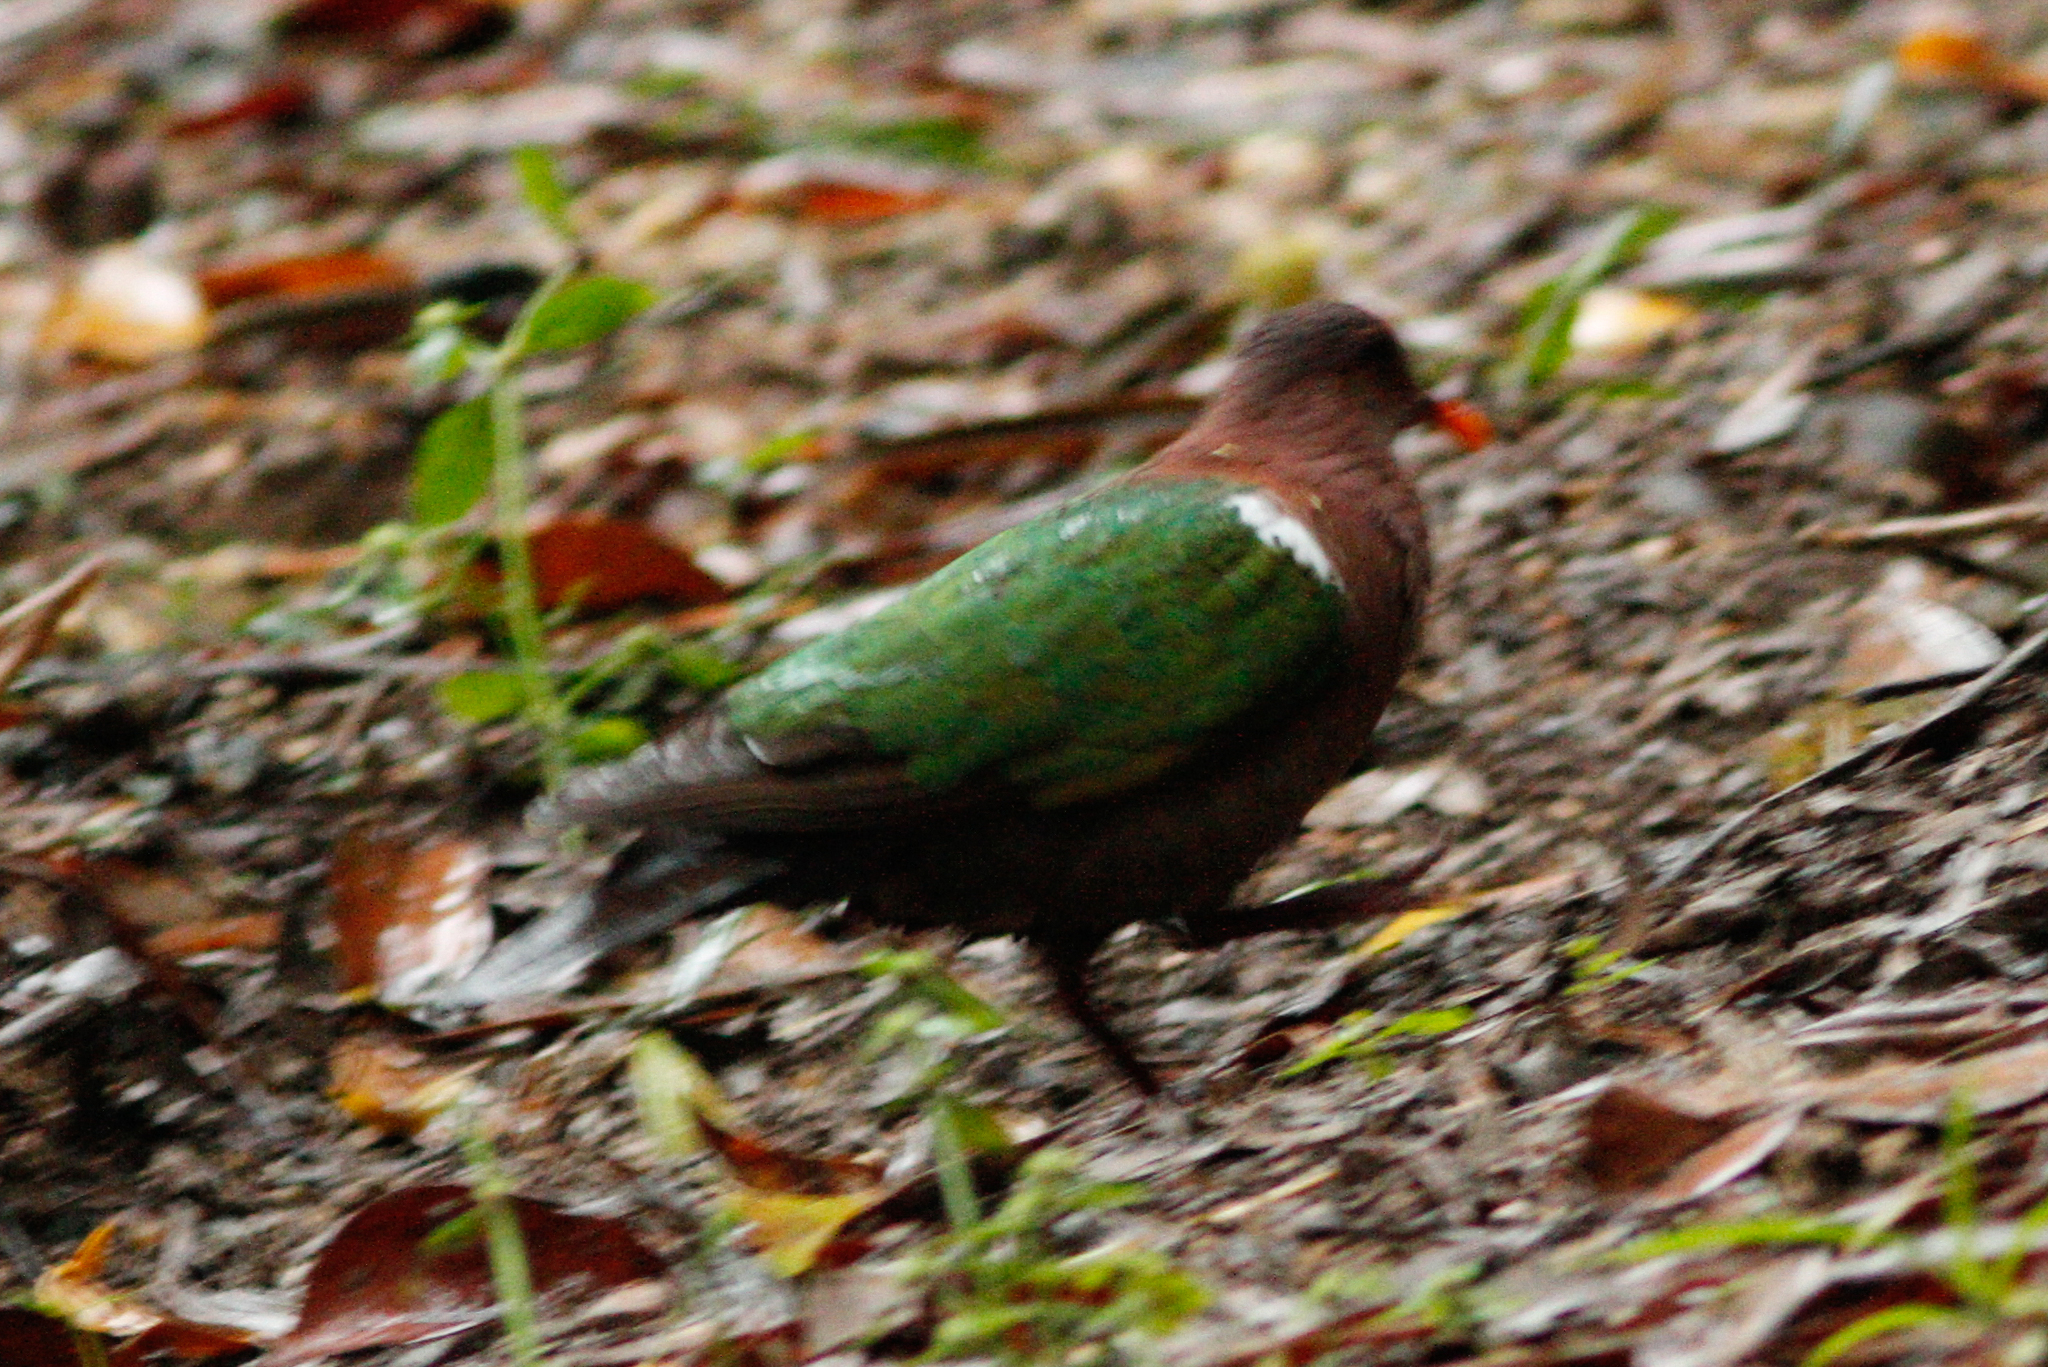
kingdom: Animalia
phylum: Chordata
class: Aves
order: Columbiformes
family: Columbidae
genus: Chalcophaps
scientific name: Chalcophaps longirostris
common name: Pacific emerald dove
